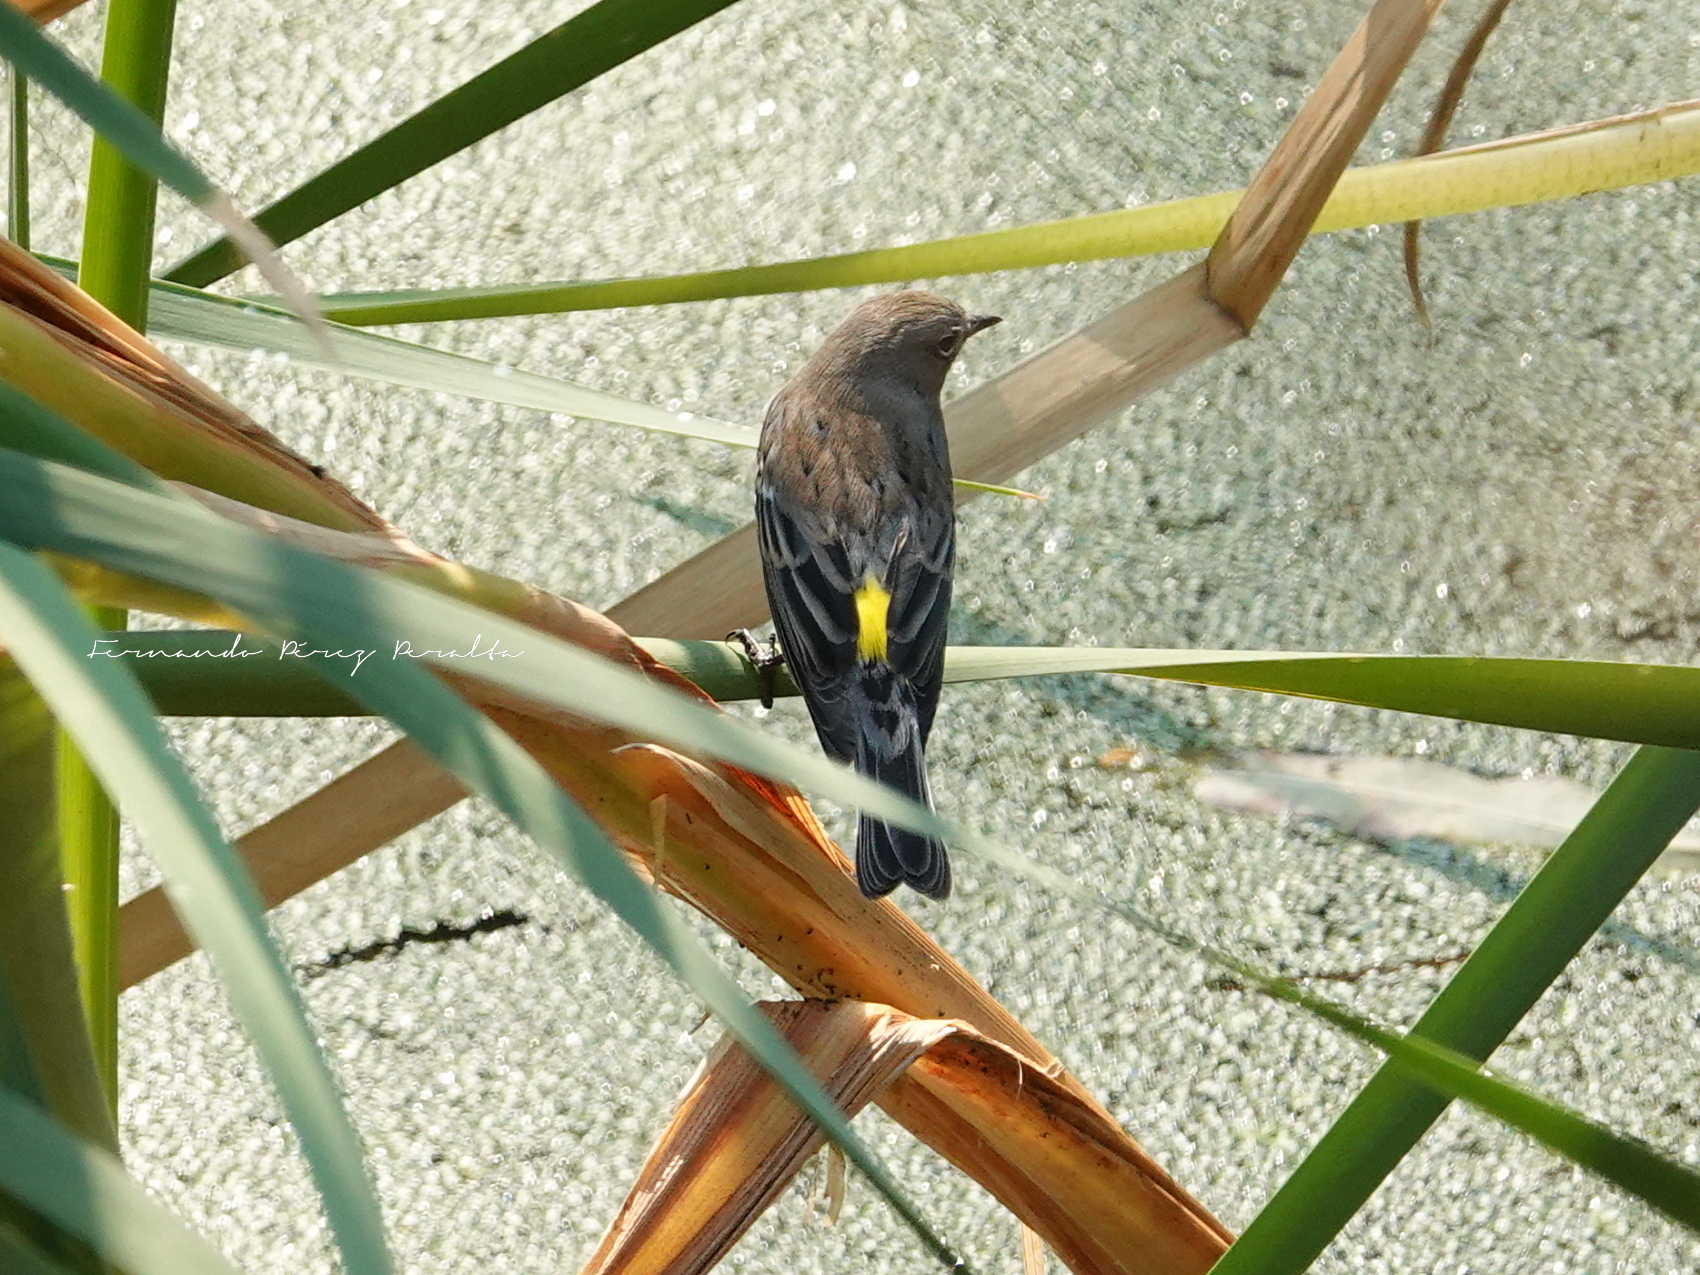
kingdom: Animalia
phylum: Chordata
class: Aves
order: Passeriformes
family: Parulidae
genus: Setophaga
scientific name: Setophaga coronata
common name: Myrtle warbler
